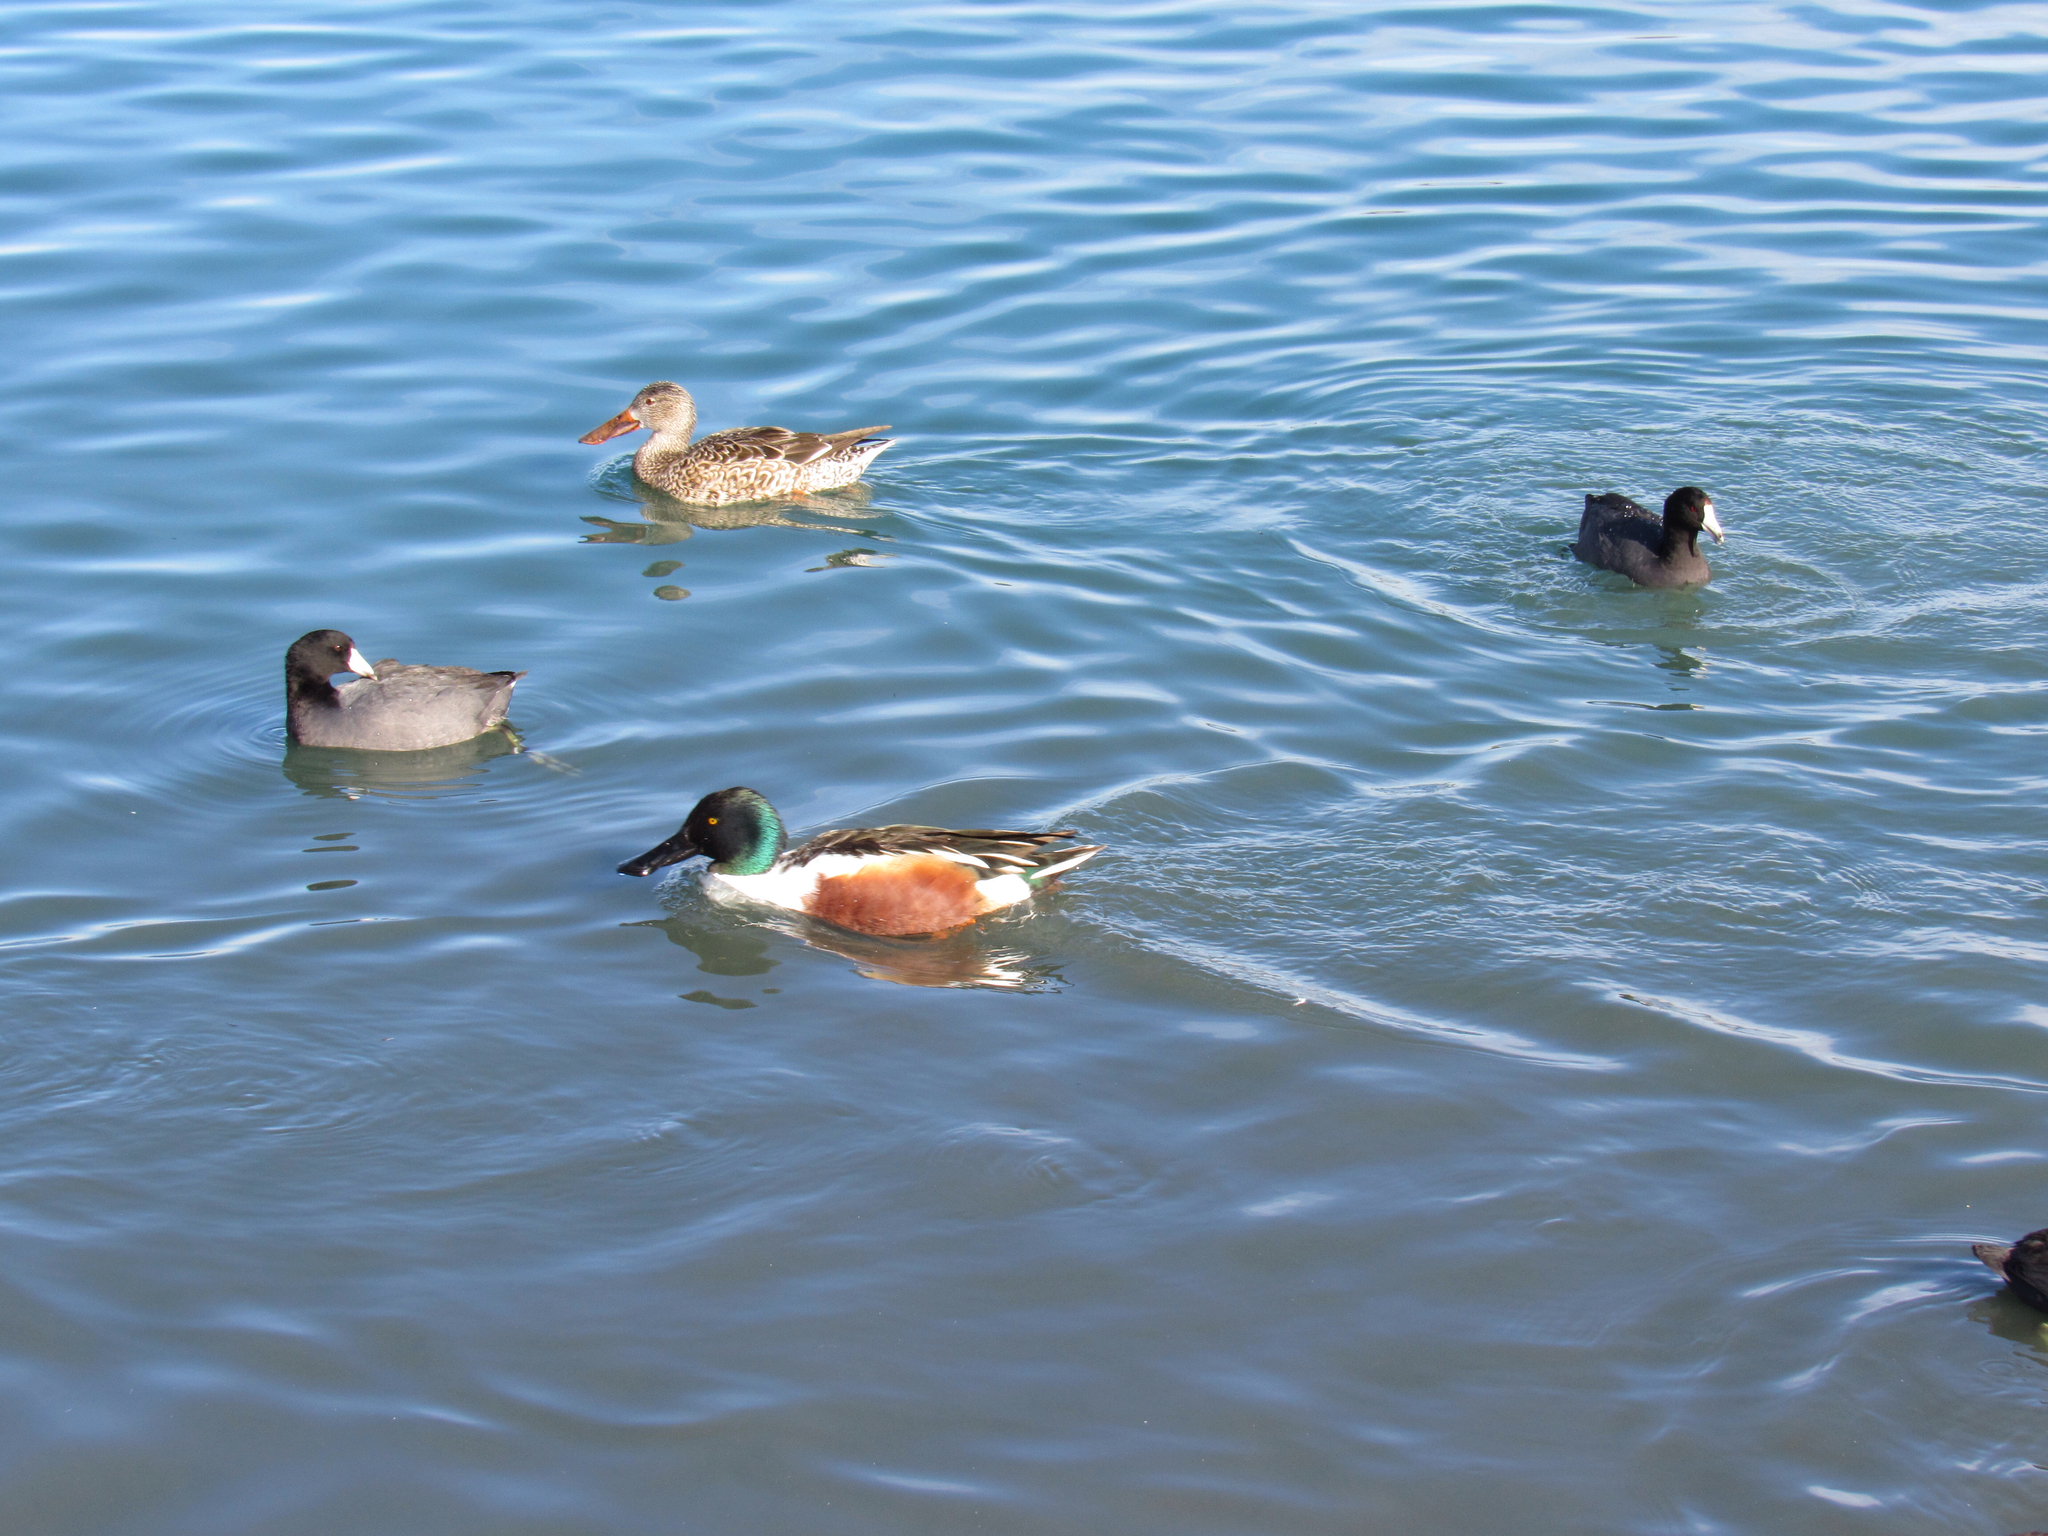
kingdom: Animalia
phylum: Chordata
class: Aves
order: Anseriformes
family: Anatidae
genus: Spatula
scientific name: Spatula clypeata
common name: Northern shoveler
